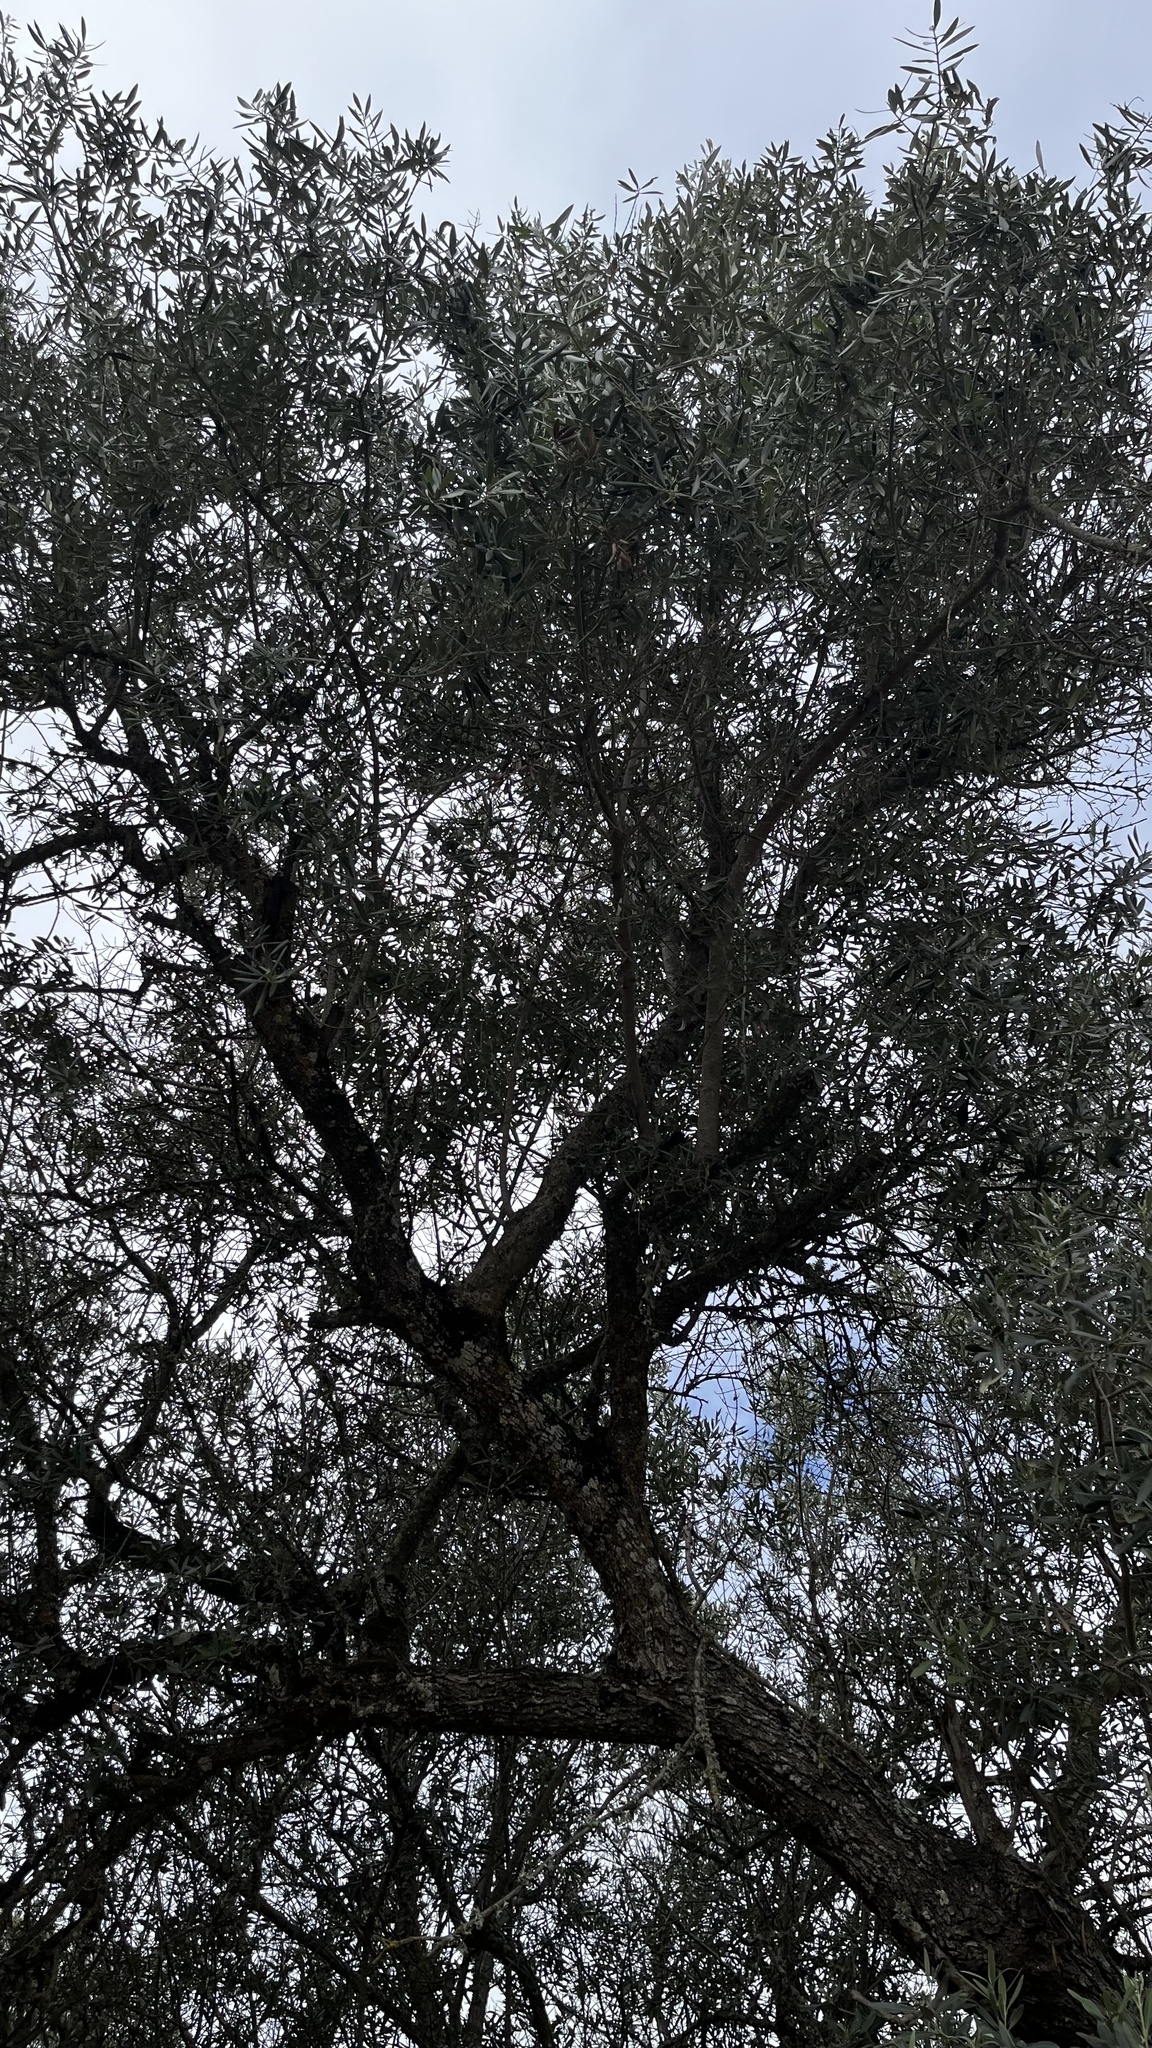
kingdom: Plantae
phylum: Tracheophyta
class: Magnoliopsida
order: Lamiales
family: Oleaceae
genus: Olea
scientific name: Olea europaea
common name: Olive
